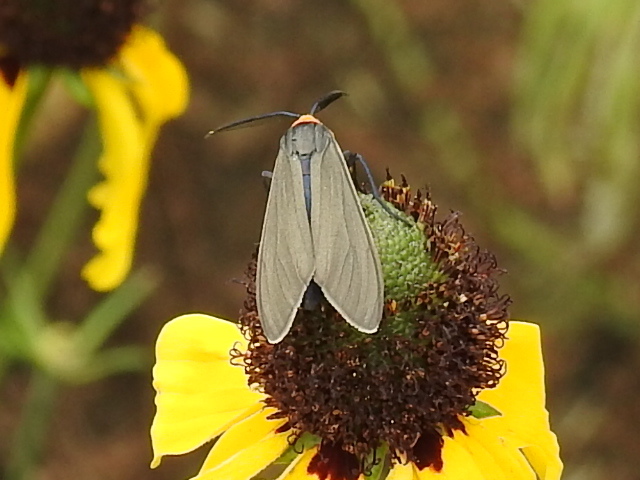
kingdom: Animalia
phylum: Arthropoda
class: Insecta
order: Lepidoptera
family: Erebidae
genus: Cisseps
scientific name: Cisseps fulvicollis
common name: Yellow-collared scape moth
